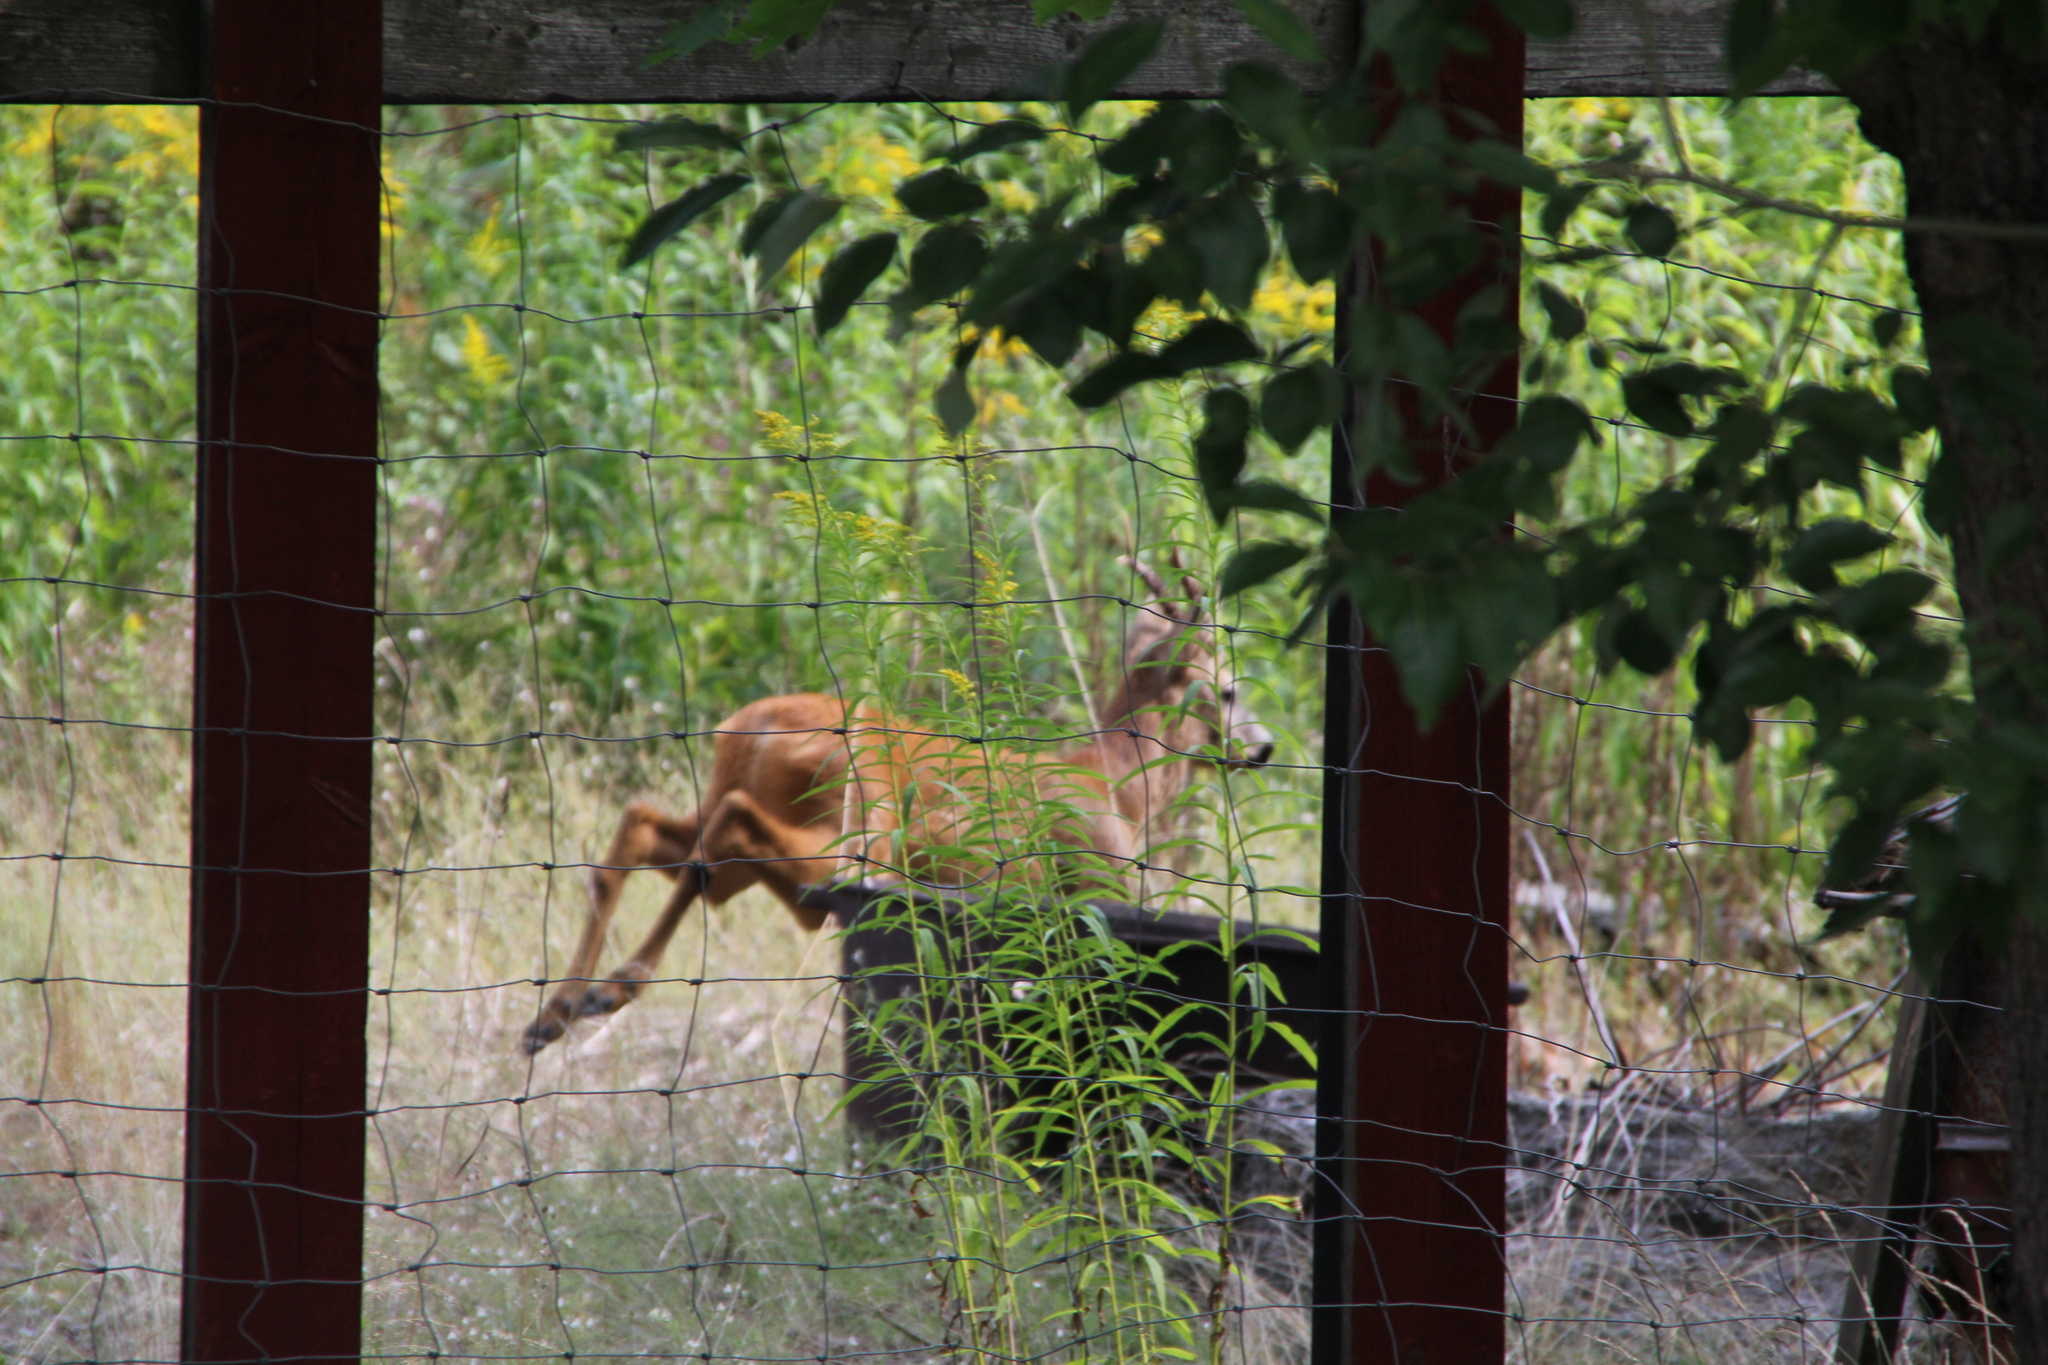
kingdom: Animalia
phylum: Chordata
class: Mammalia
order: Artiodactyla
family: Cervidae
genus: Capreolus
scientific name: Capreolus capreolus
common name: Western roe deer
